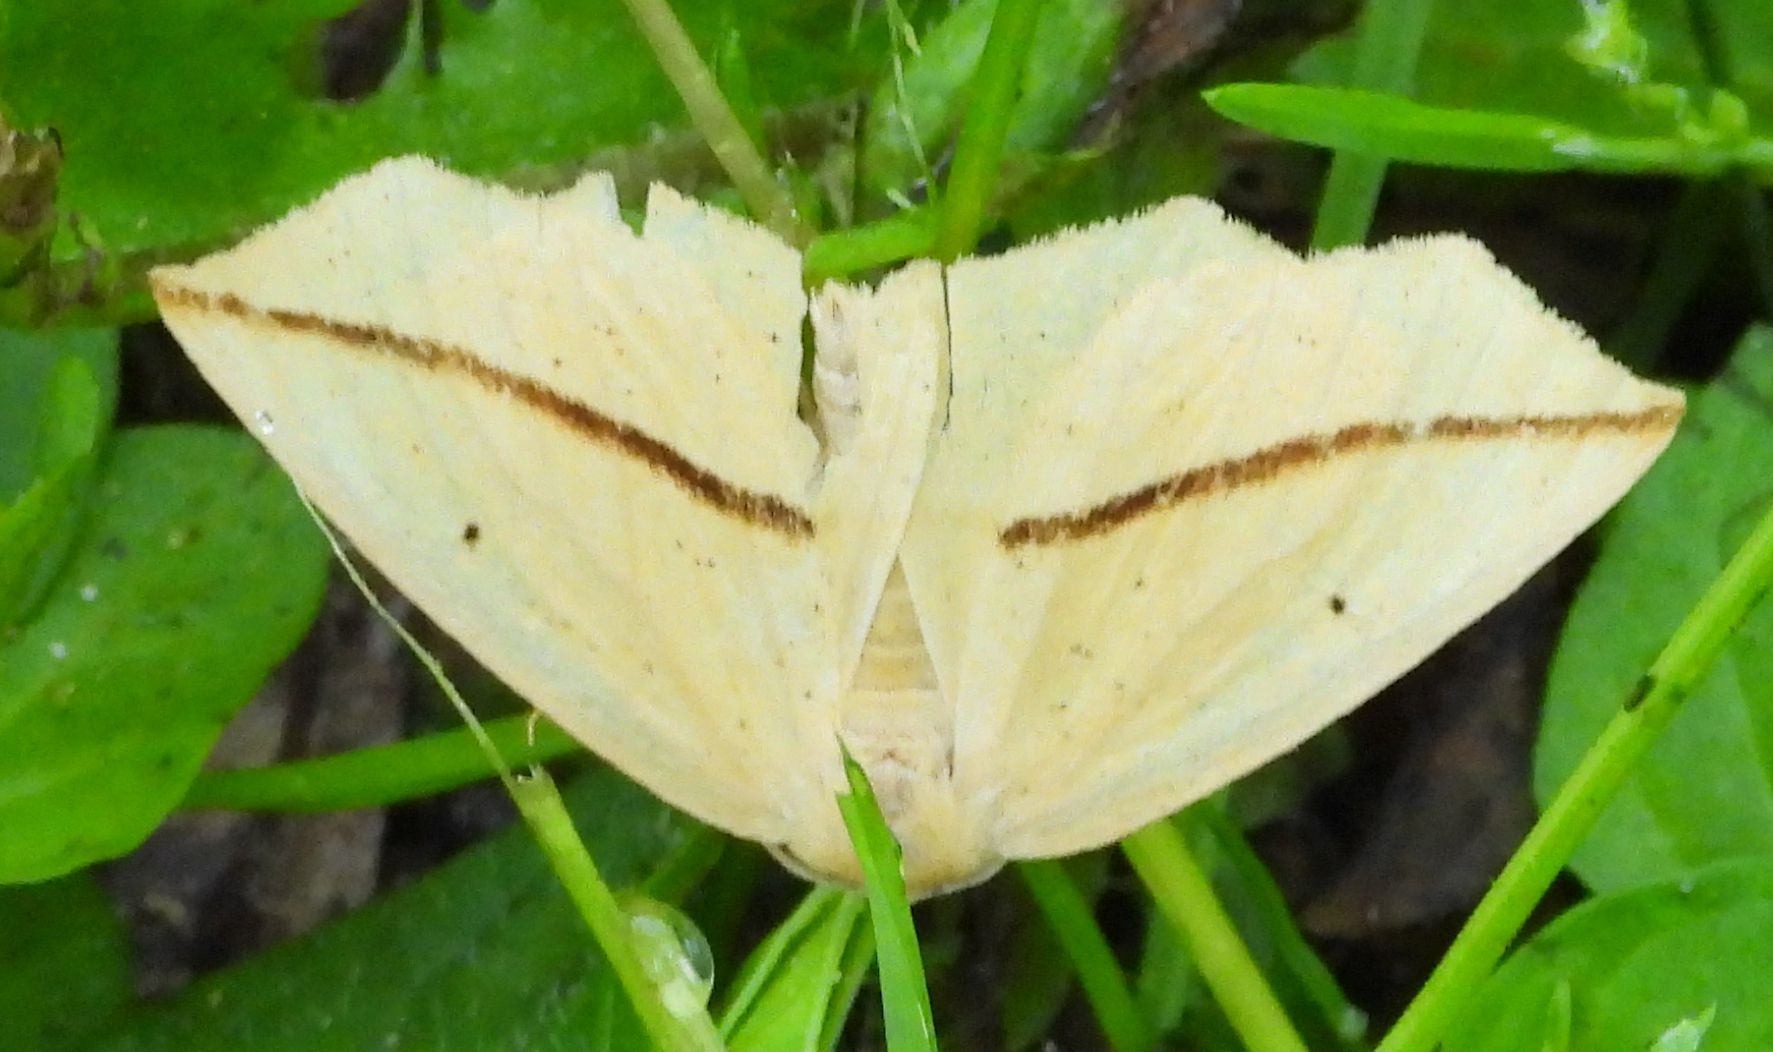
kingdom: Animalia
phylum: Arthropoda
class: Insecta
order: Lepidoptera
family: Geometridae
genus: Tetracis
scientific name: Tetracis crocallata
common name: Yellow slant-line
